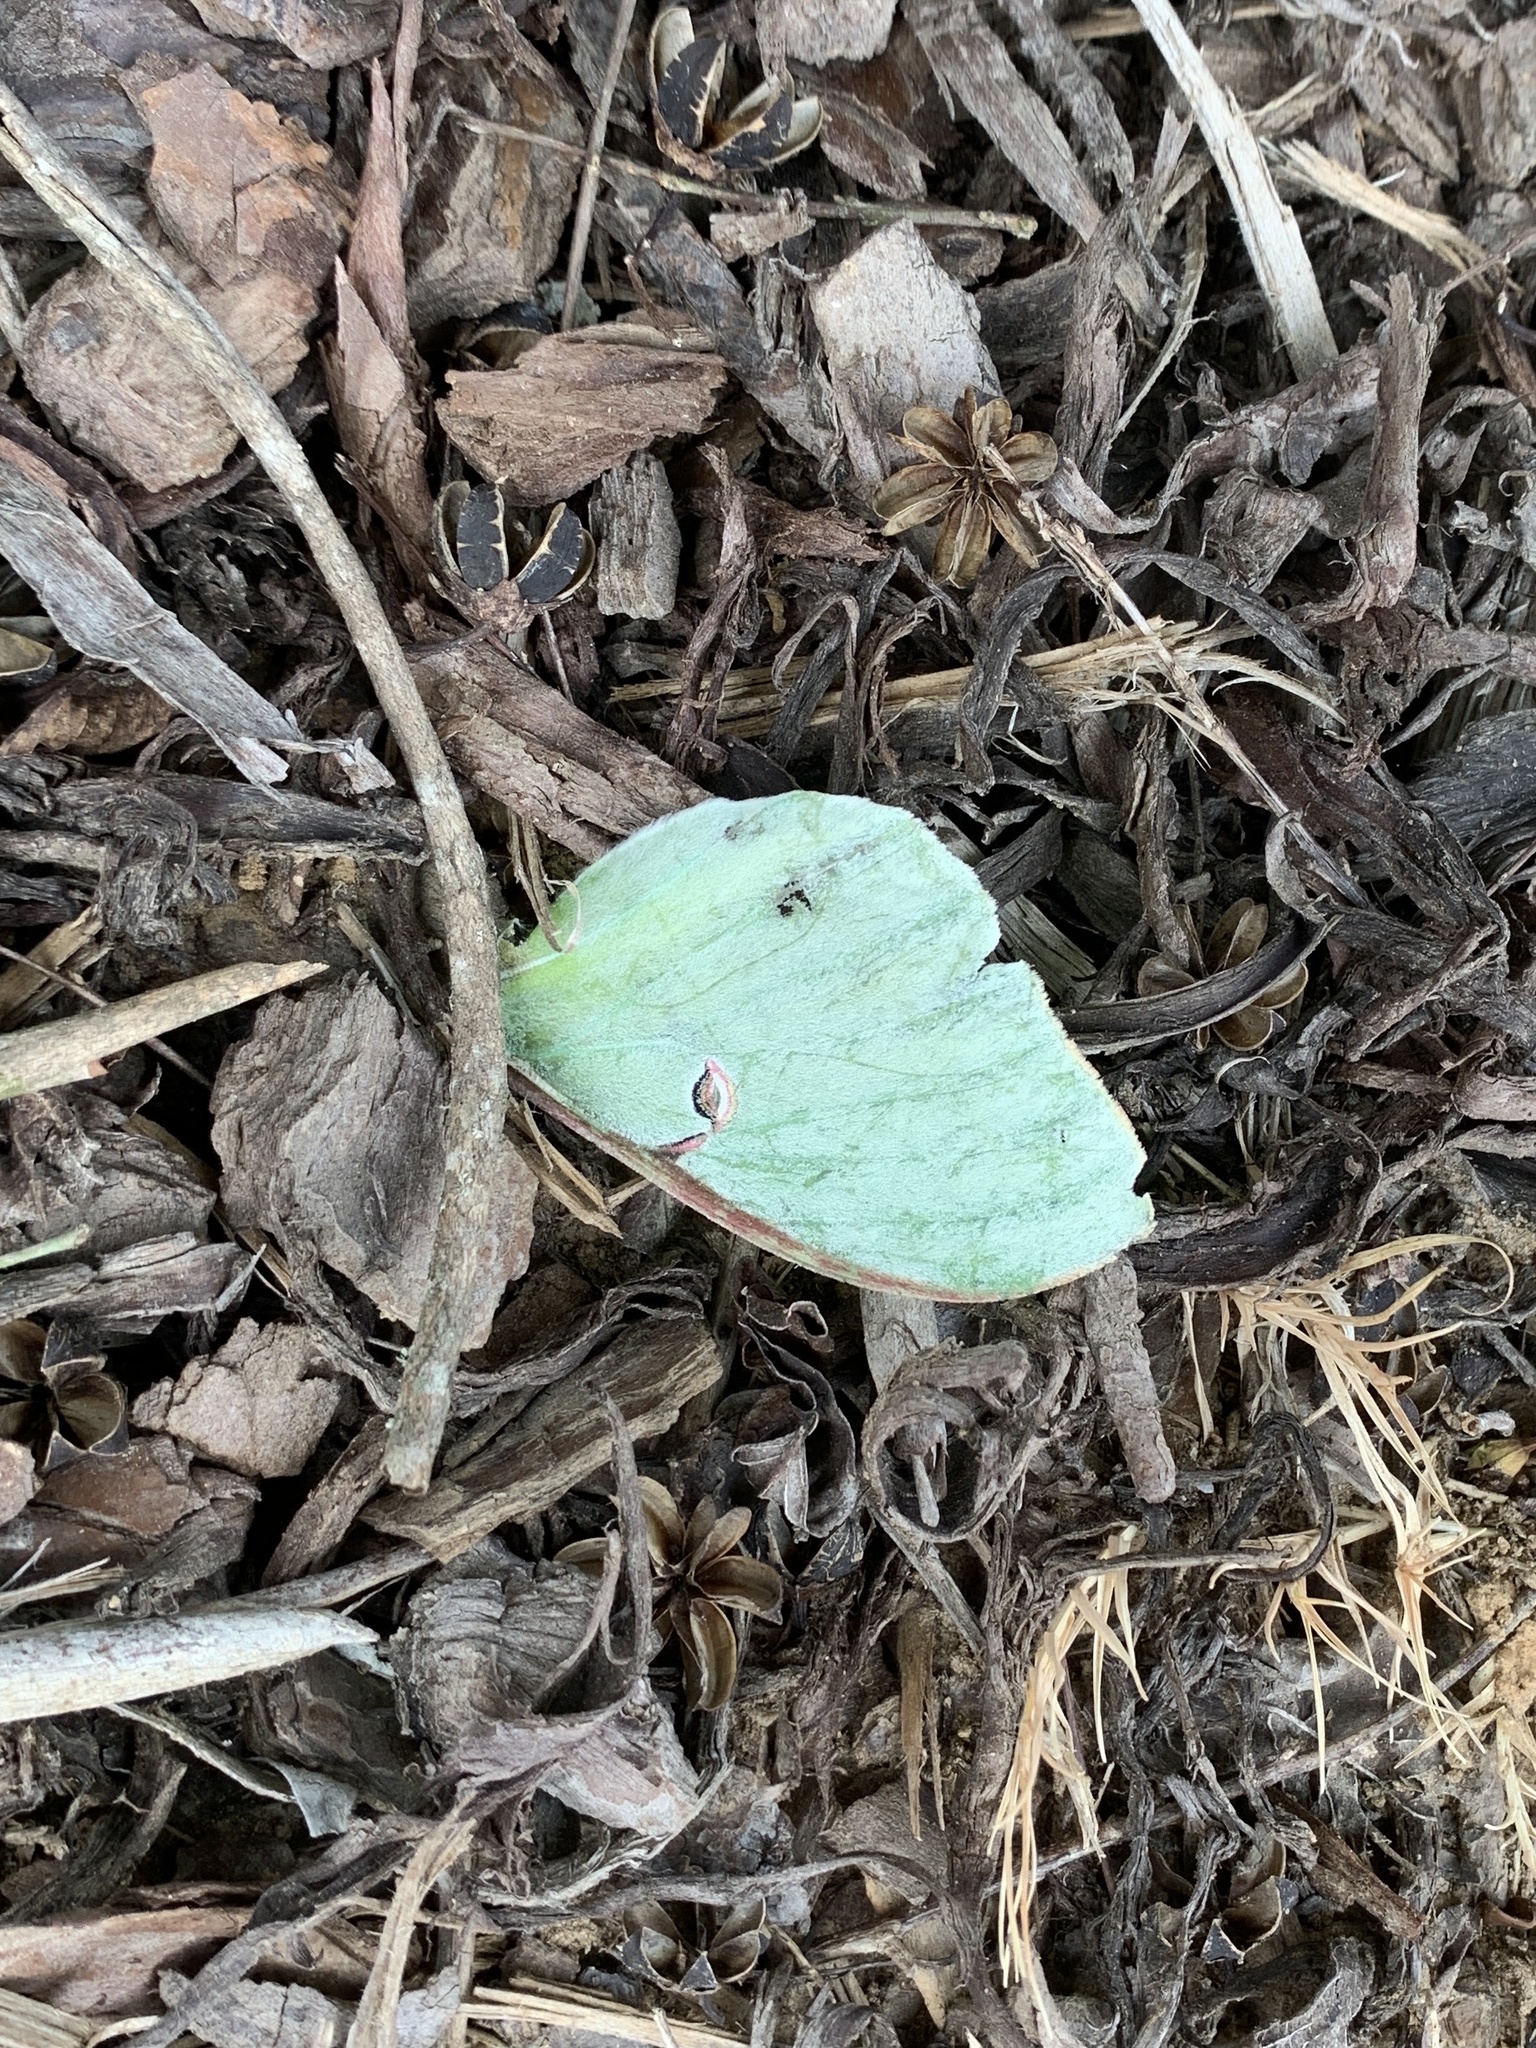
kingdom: Animalia
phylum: Arthropoda
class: Insecta
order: Lepidoptera
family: Saturniidae
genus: Actias
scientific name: Actias luna
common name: Luna moth
